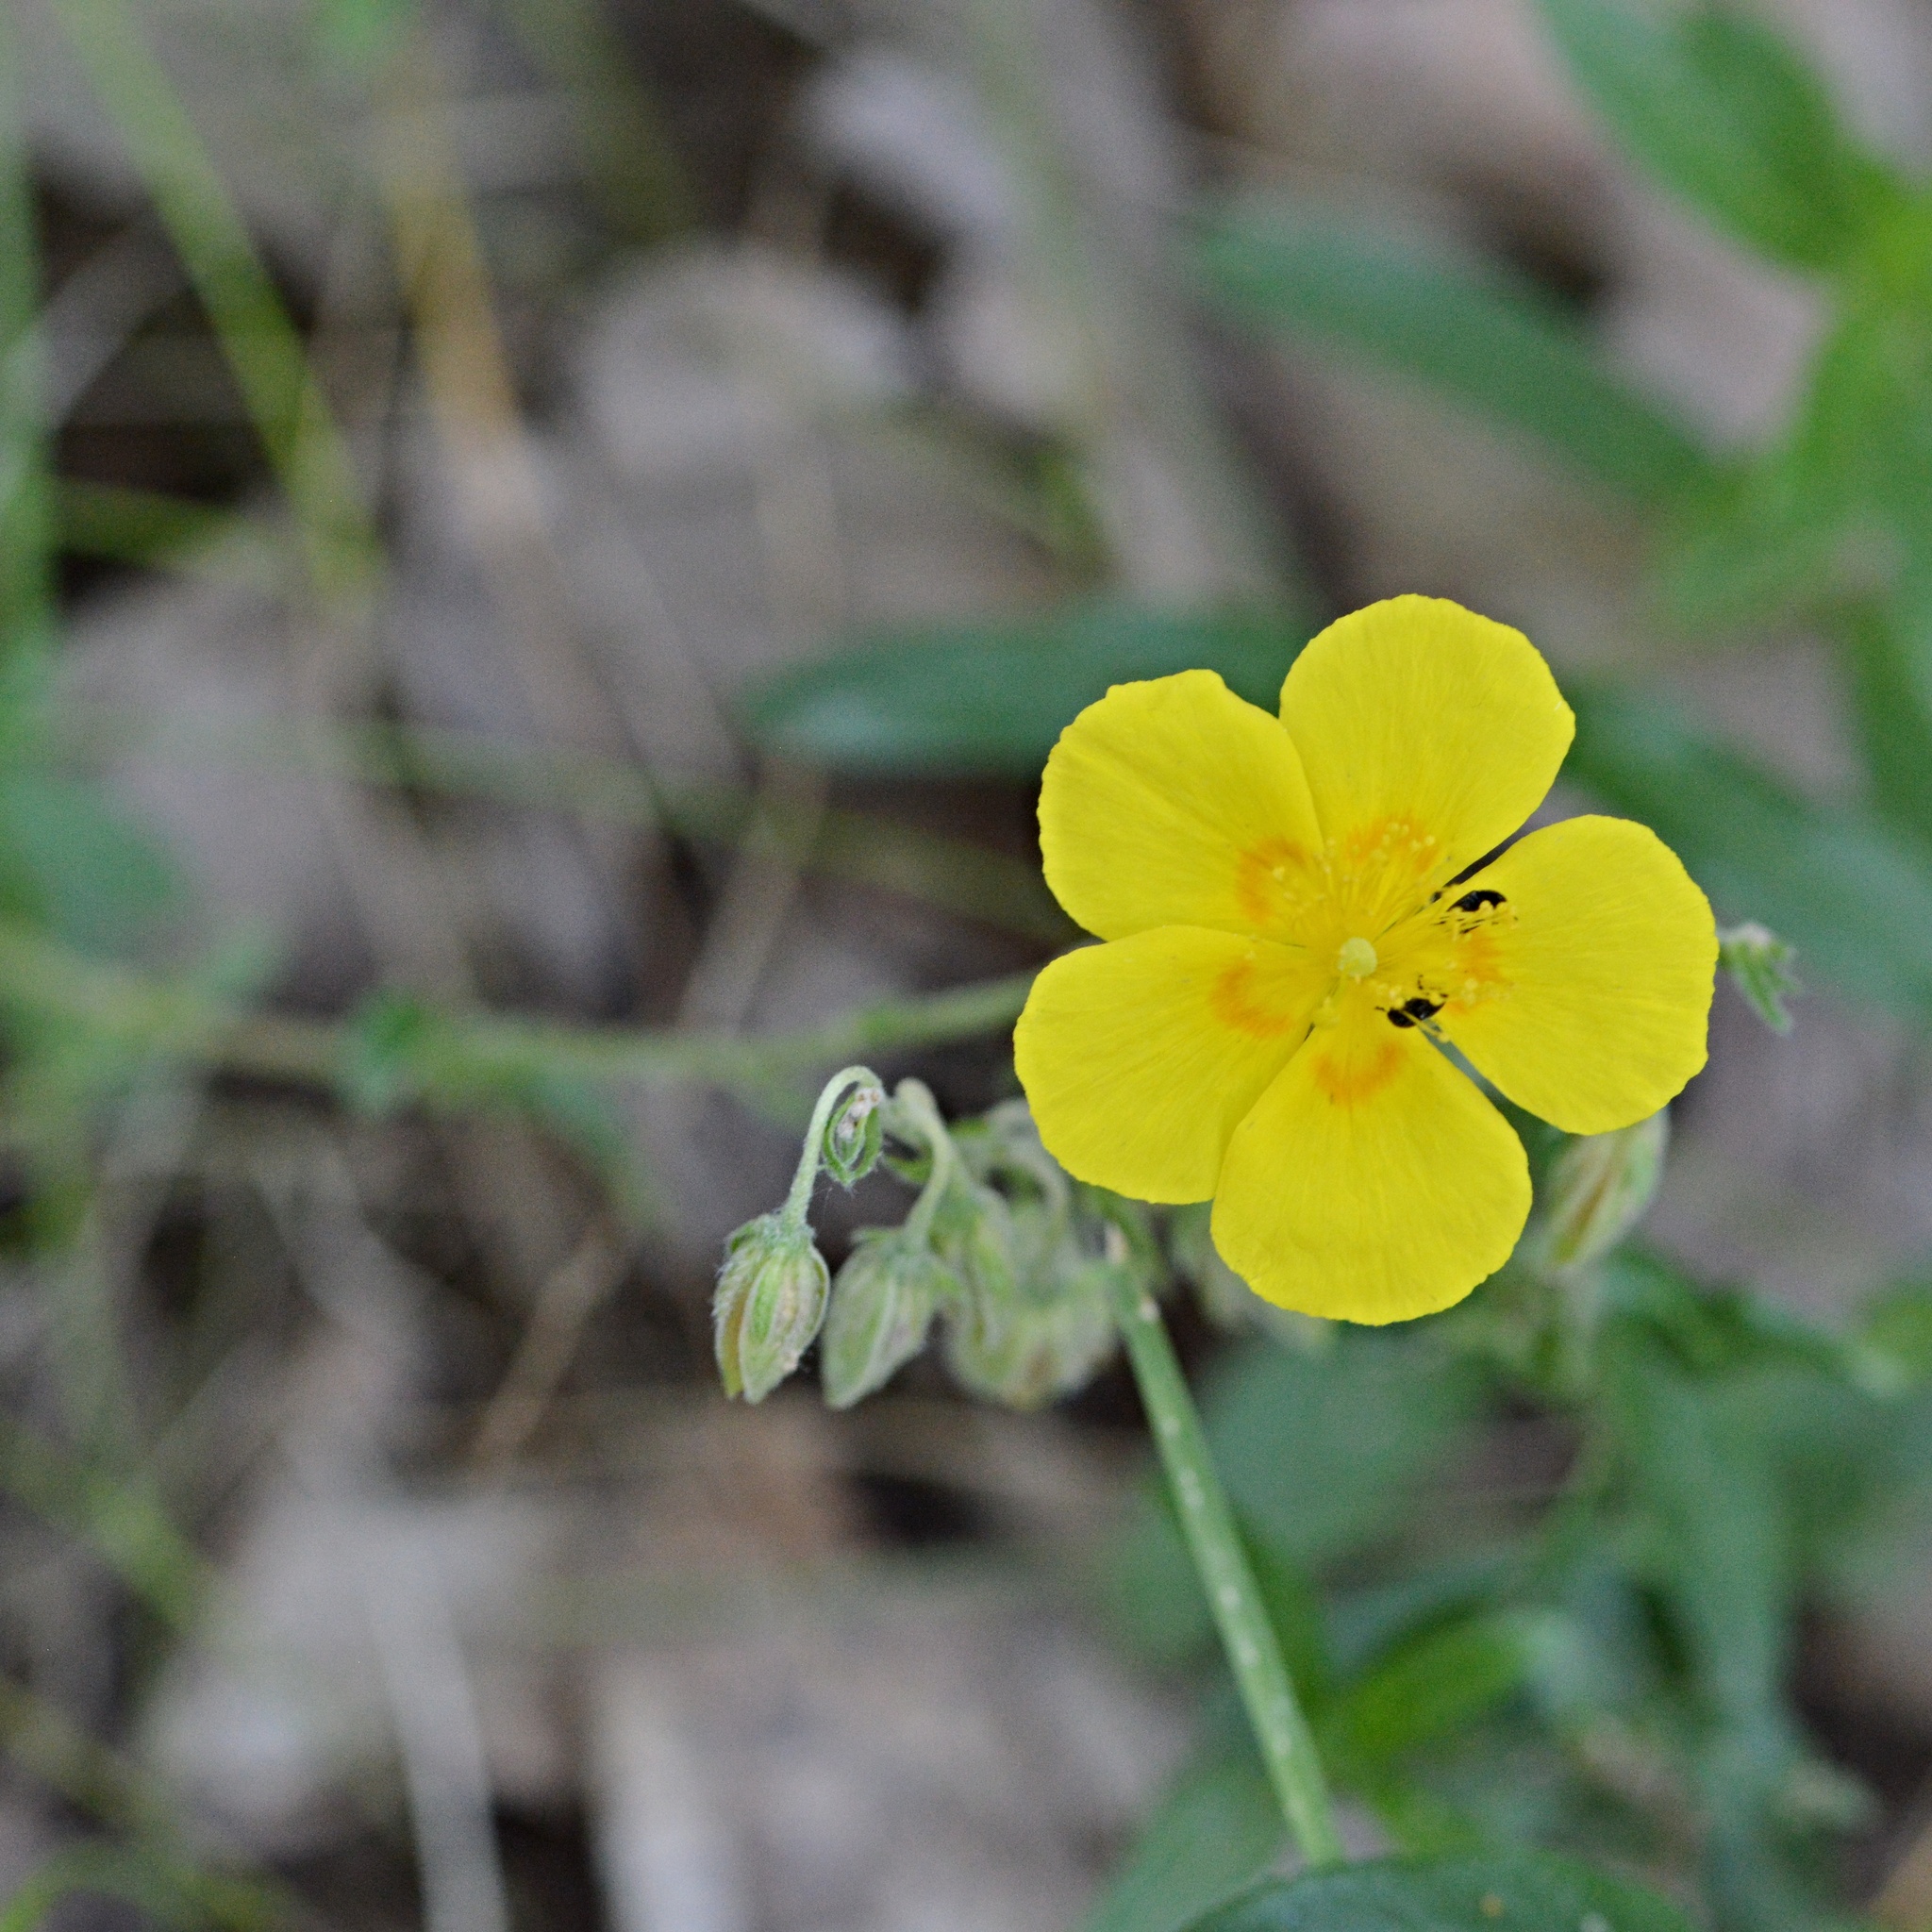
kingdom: Plantae
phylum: Tracheophyta
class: Magnoliopsida
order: Malvales
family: Cistaceae
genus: Helianthemum
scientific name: Helianthemum nummularium
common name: Common rock-rose
